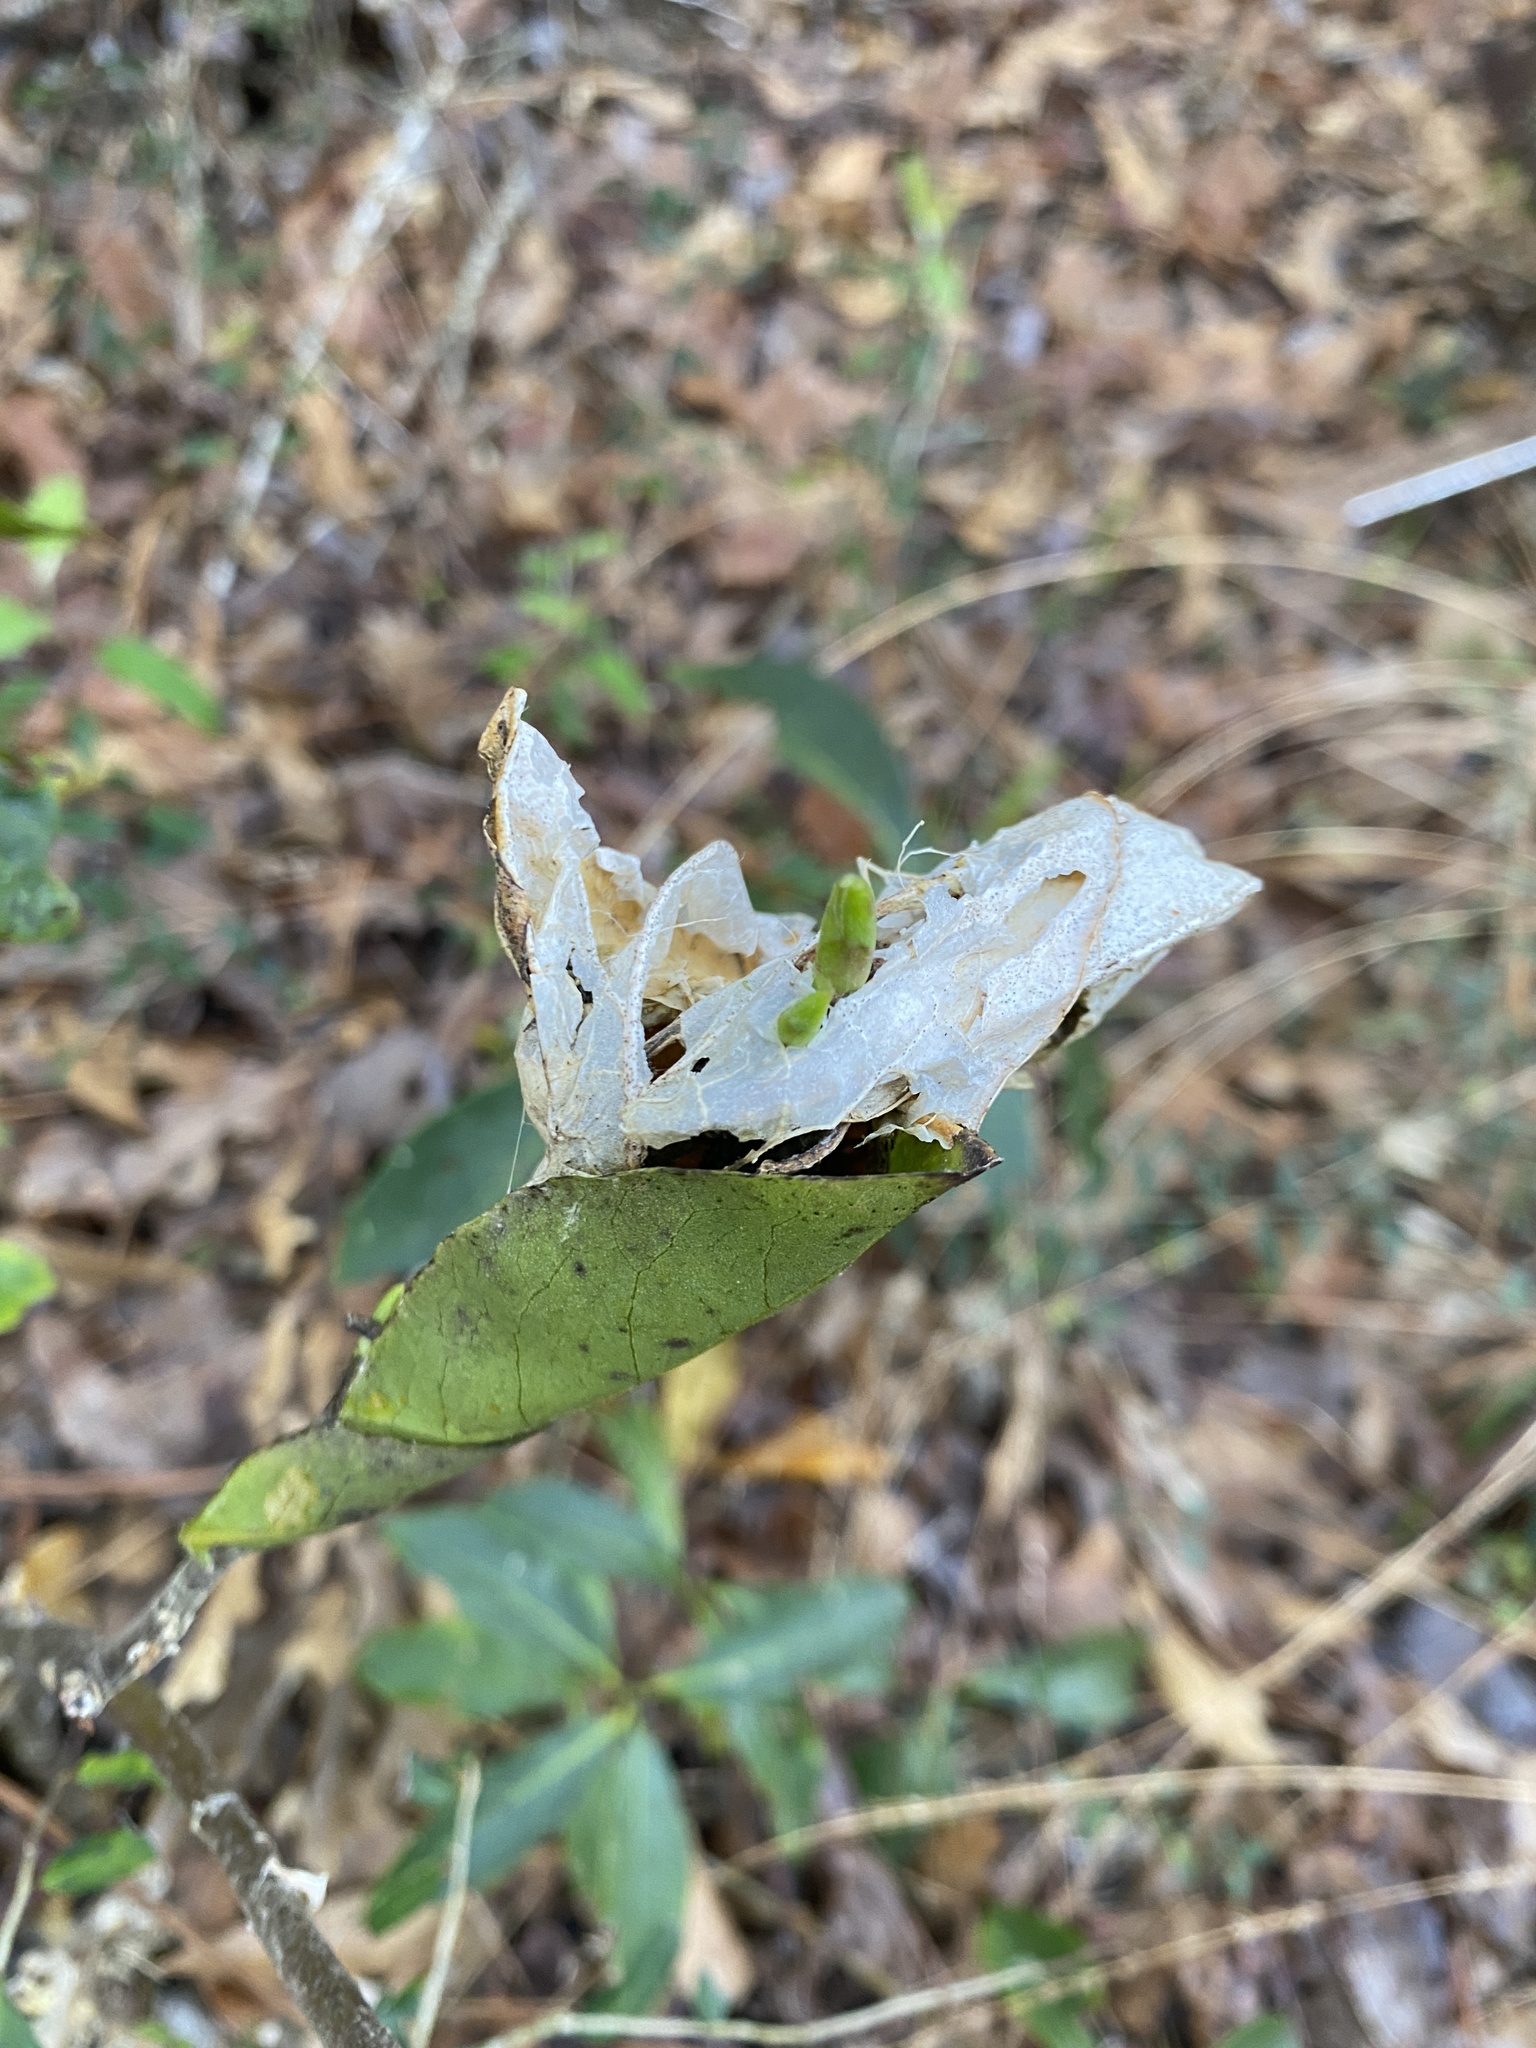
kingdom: Plantae
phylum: Tracheophyta
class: Magnoliopsida
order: Ericales
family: Symplocaceae
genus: Symplocos
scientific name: Symplocos tinctoria
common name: Horse-sugar
